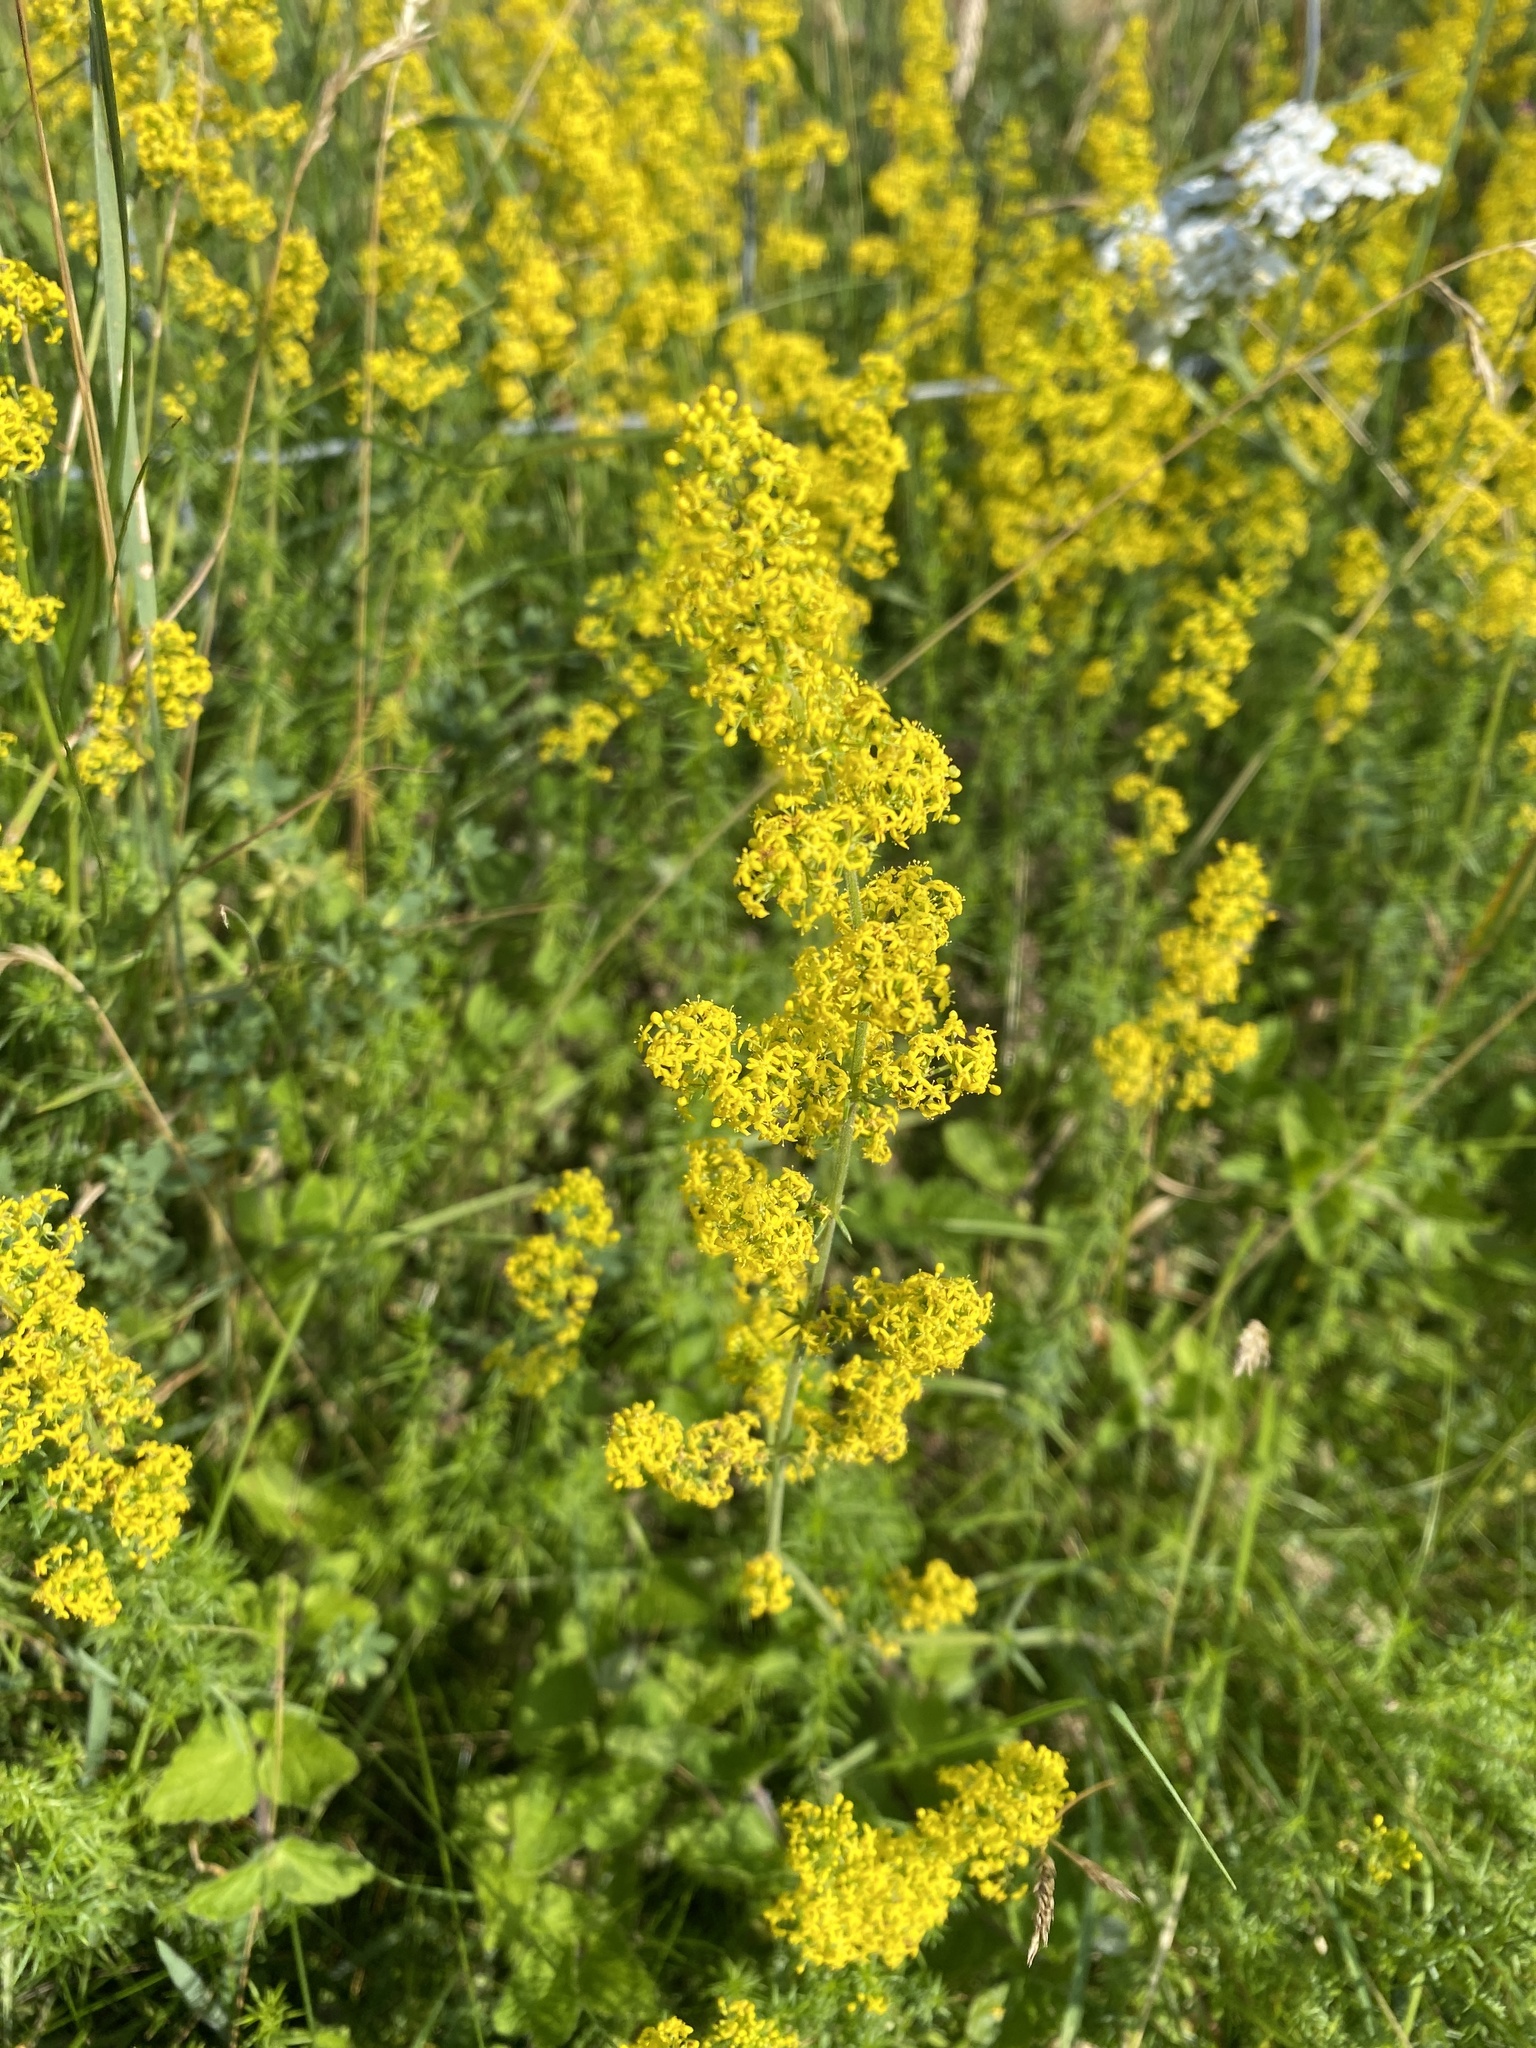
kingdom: Plantae
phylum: Tracheophyta
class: Magnoliopsida
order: Gentianales
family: Rubiaceae
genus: Galium
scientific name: Galium verum
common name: Lady's bedstraw
